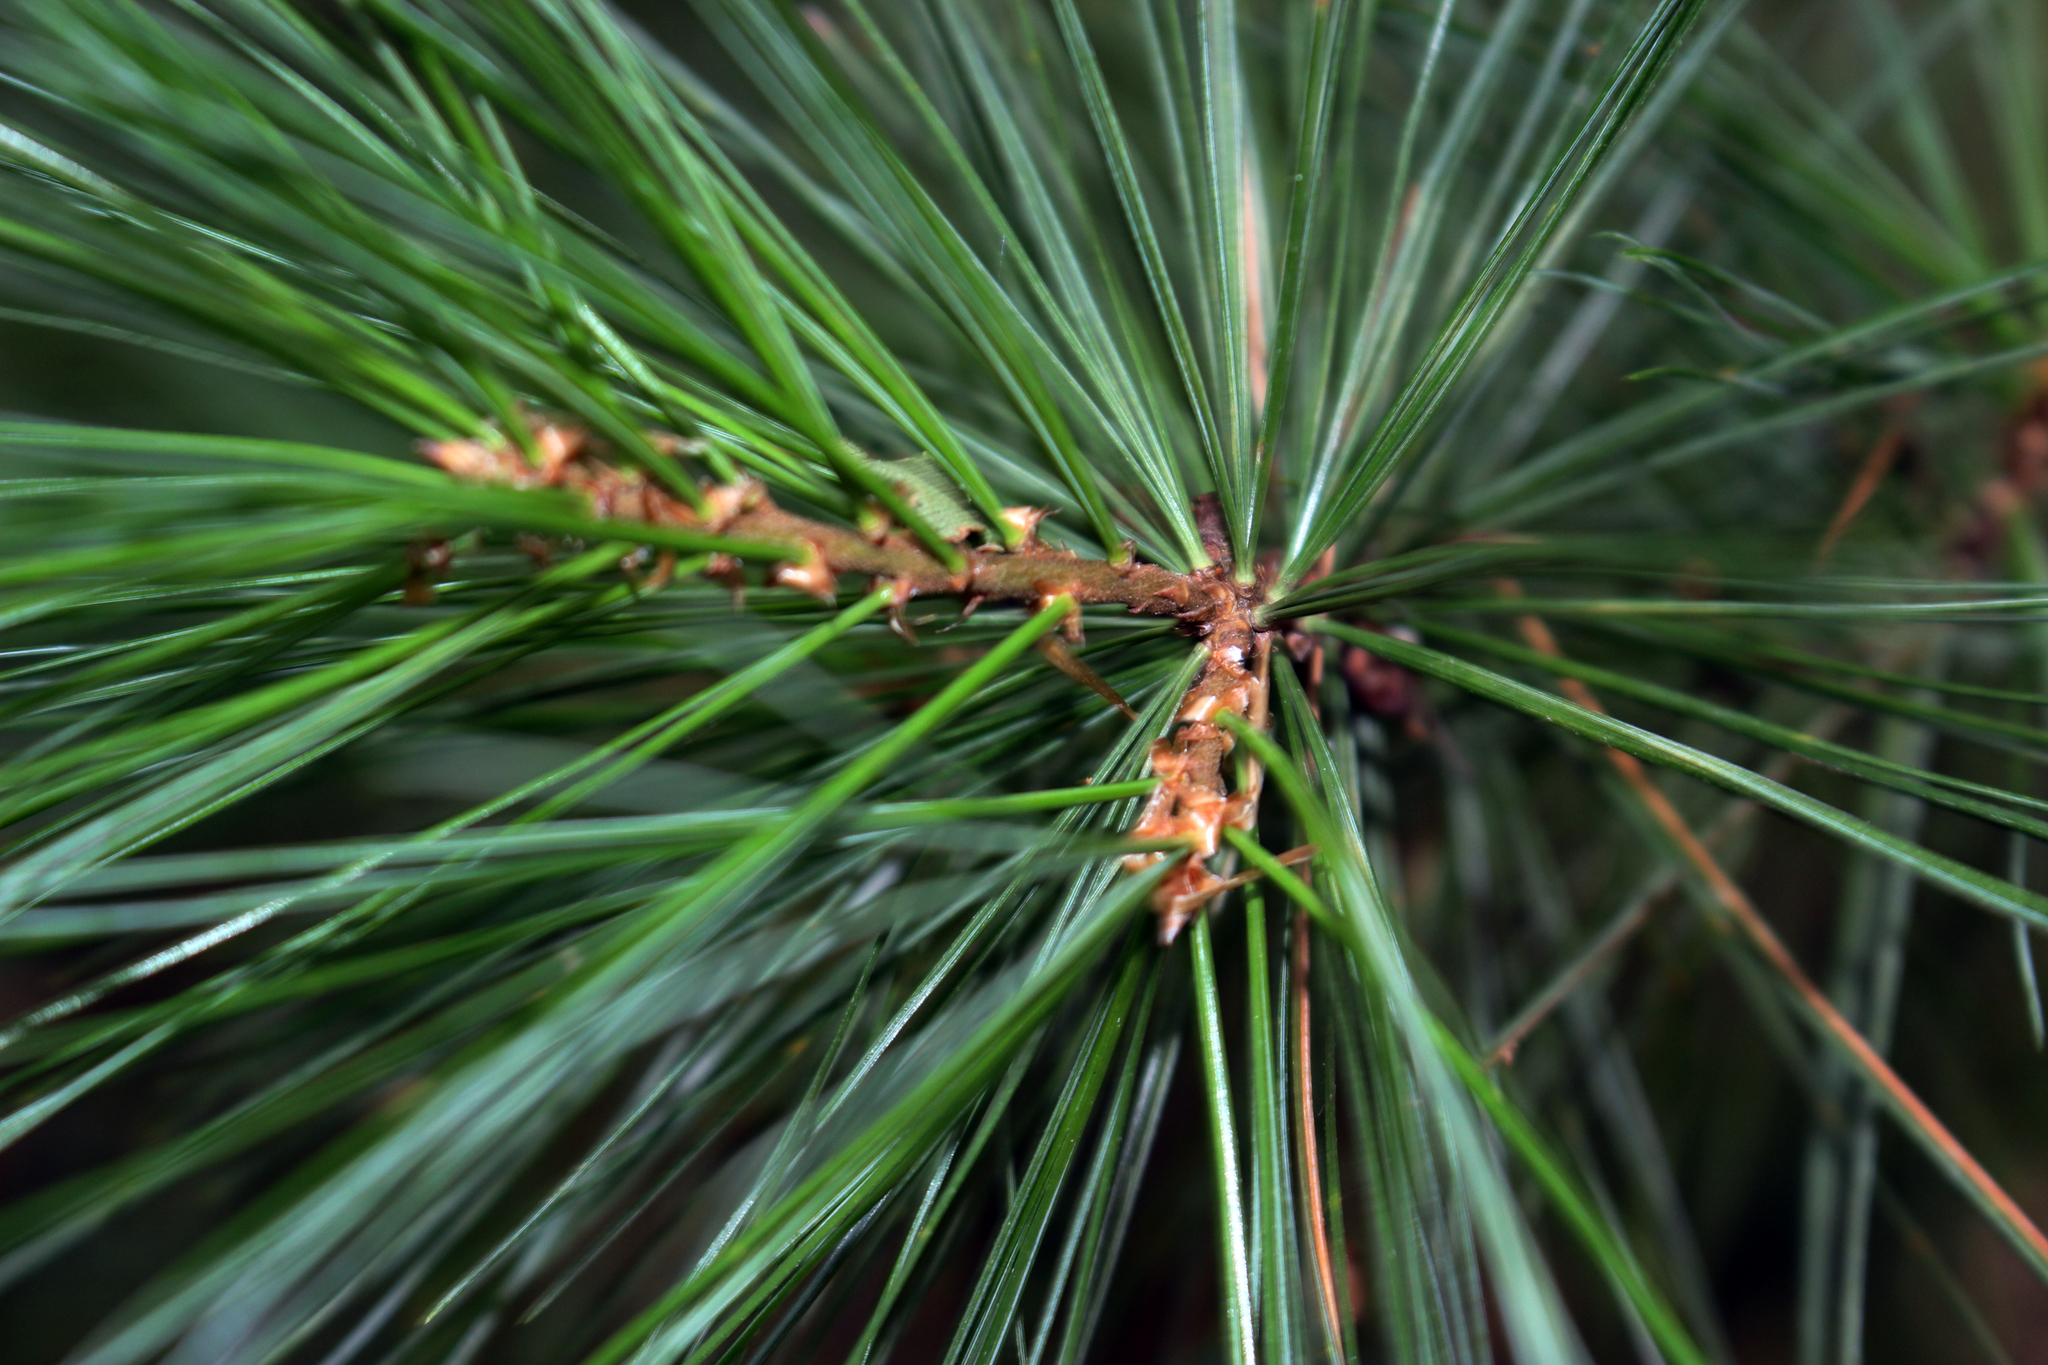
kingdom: Plantae
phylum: Tracheophyta
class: Pinopsida
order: Pinales
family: Pinaceae
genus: Pinus
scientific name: Pinus strobus
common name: Weymouth pine
